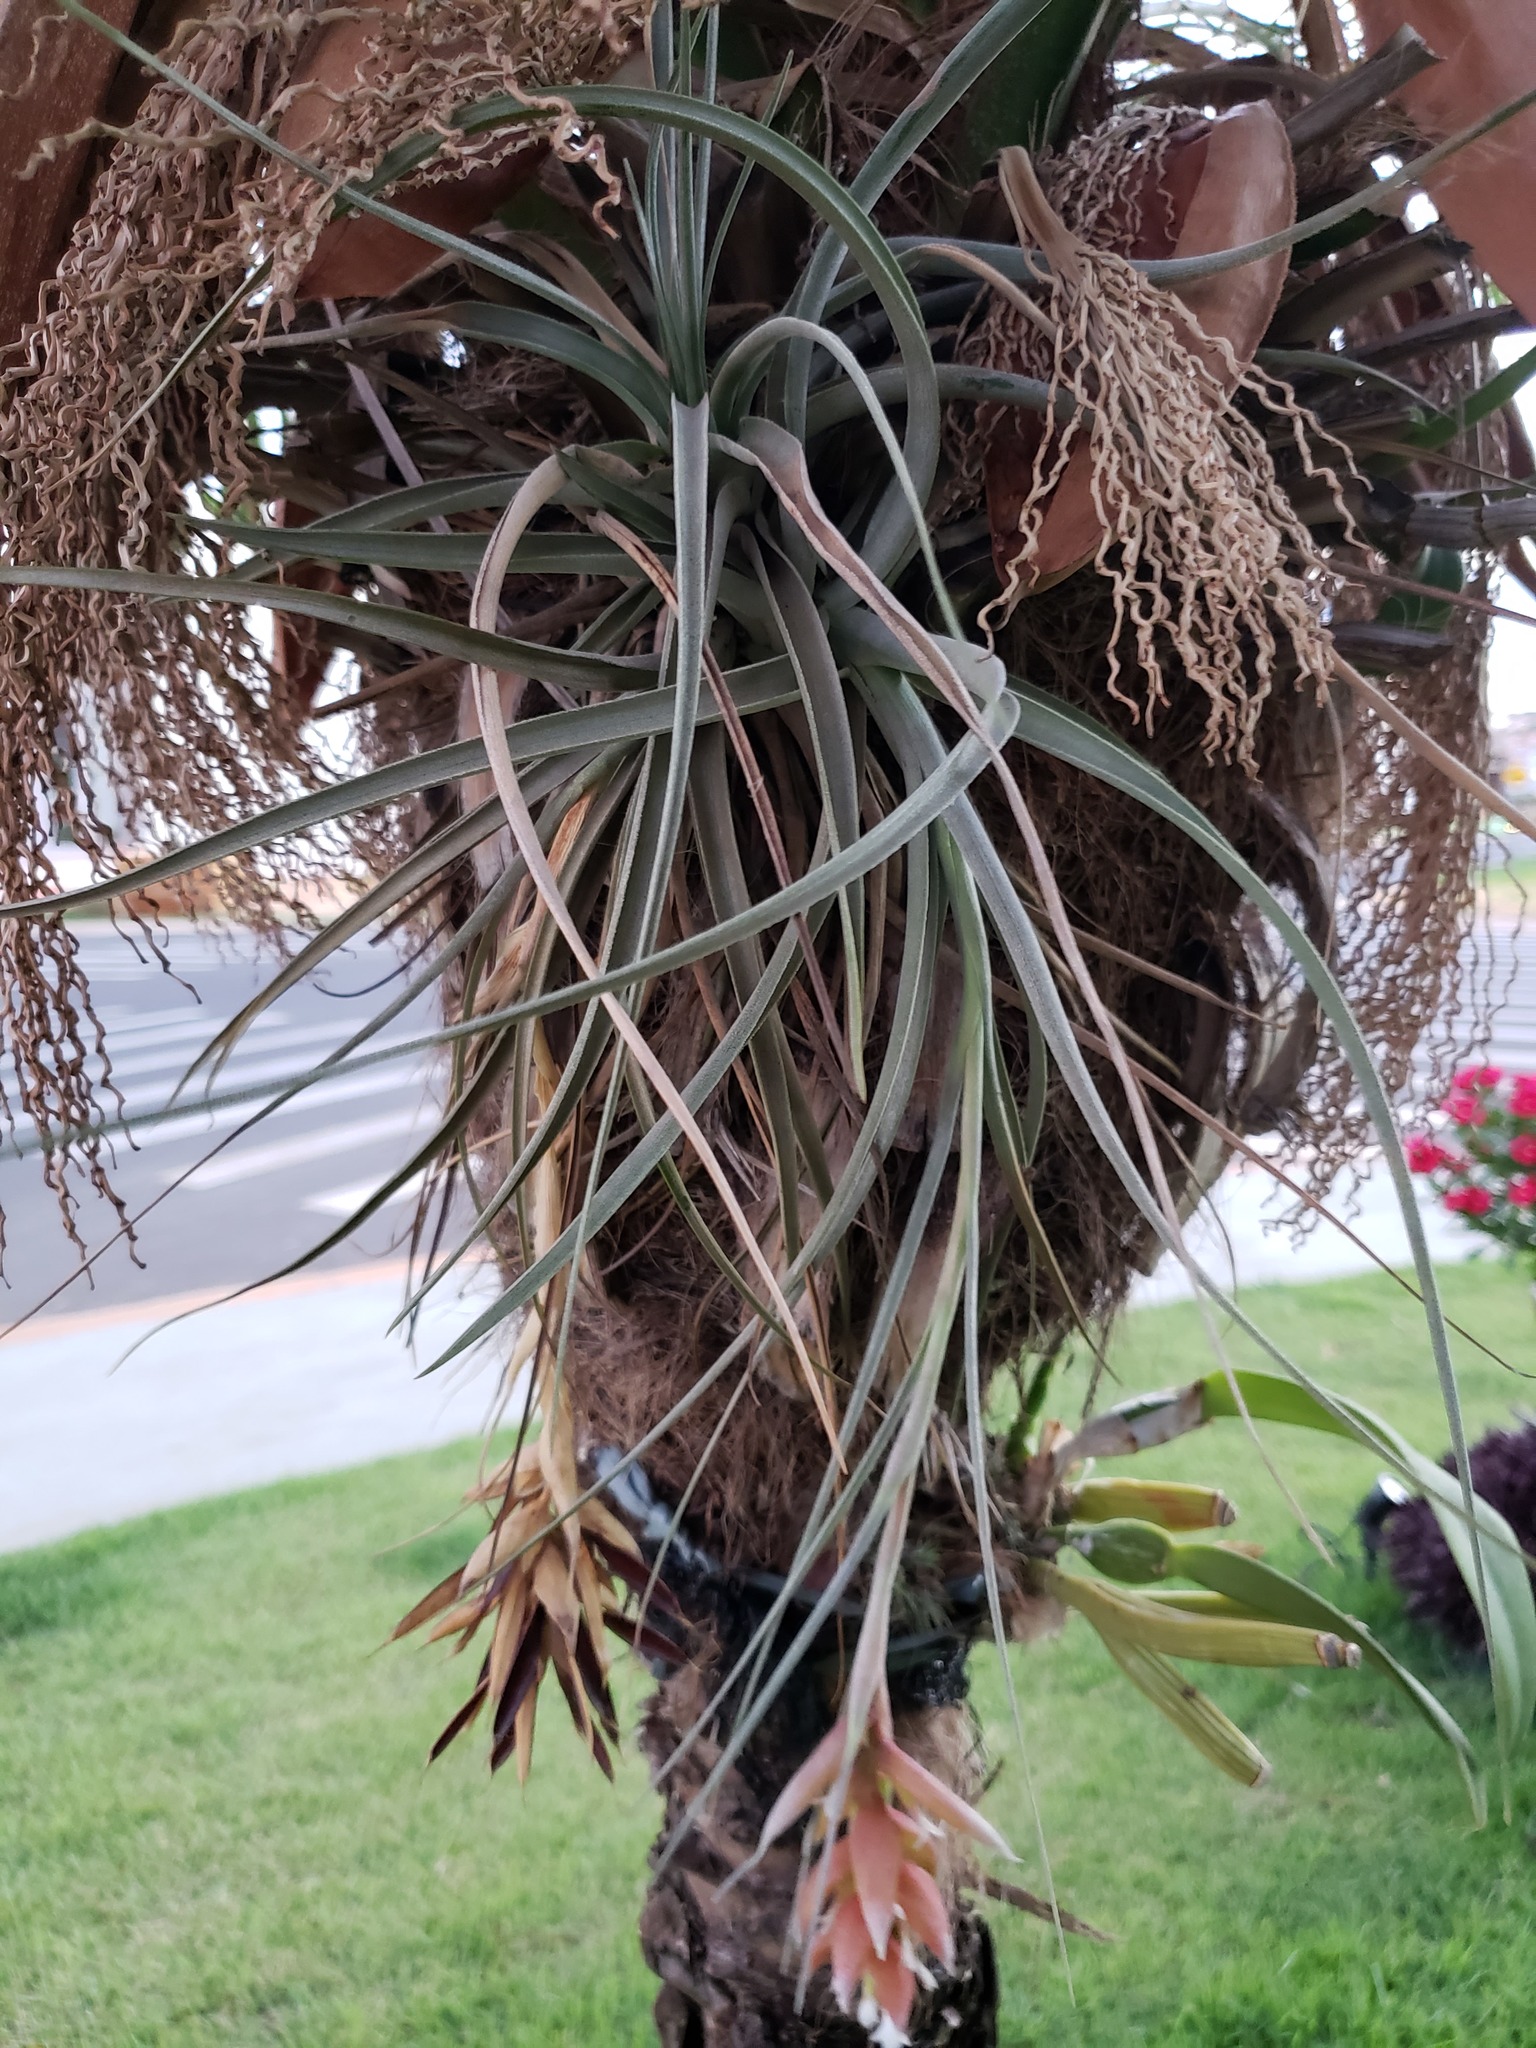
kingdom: Plantae
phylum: Tracheophyta
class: Liliopsida
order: Poales
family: Bromeliaceae
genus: Tillandsia
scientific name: Tillandsia pohliana
